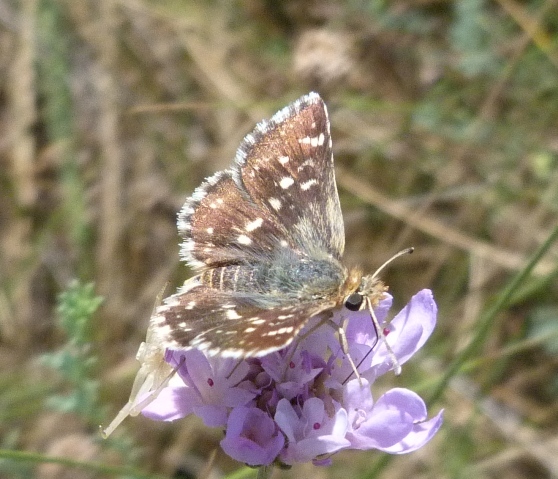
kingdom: Animalia
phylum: Arthropoda
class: Insecta
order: Lepidoptera
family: Hesperiidae
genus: Spialia
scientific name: Spialia sertorius
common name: Red underwing skipper
